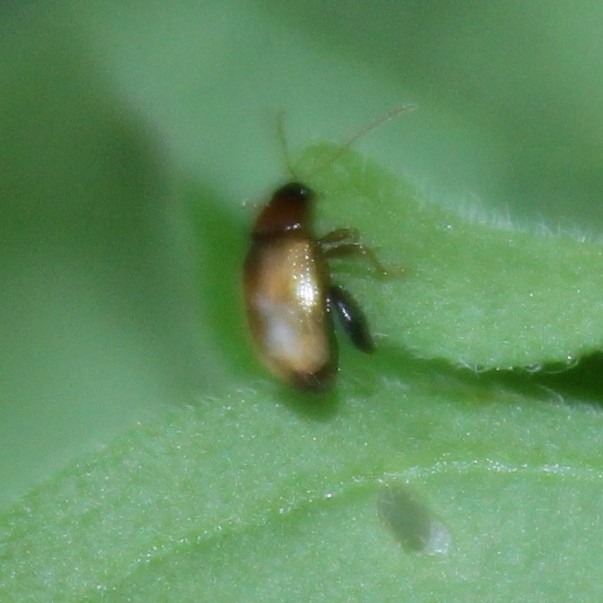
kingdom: Animalia
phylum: Arthropoda
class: Insecta
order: Coleoptera
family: Chrysomelidae
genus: Psylliodes
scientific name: Psylliodes affinis
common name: Potato flea beetle
